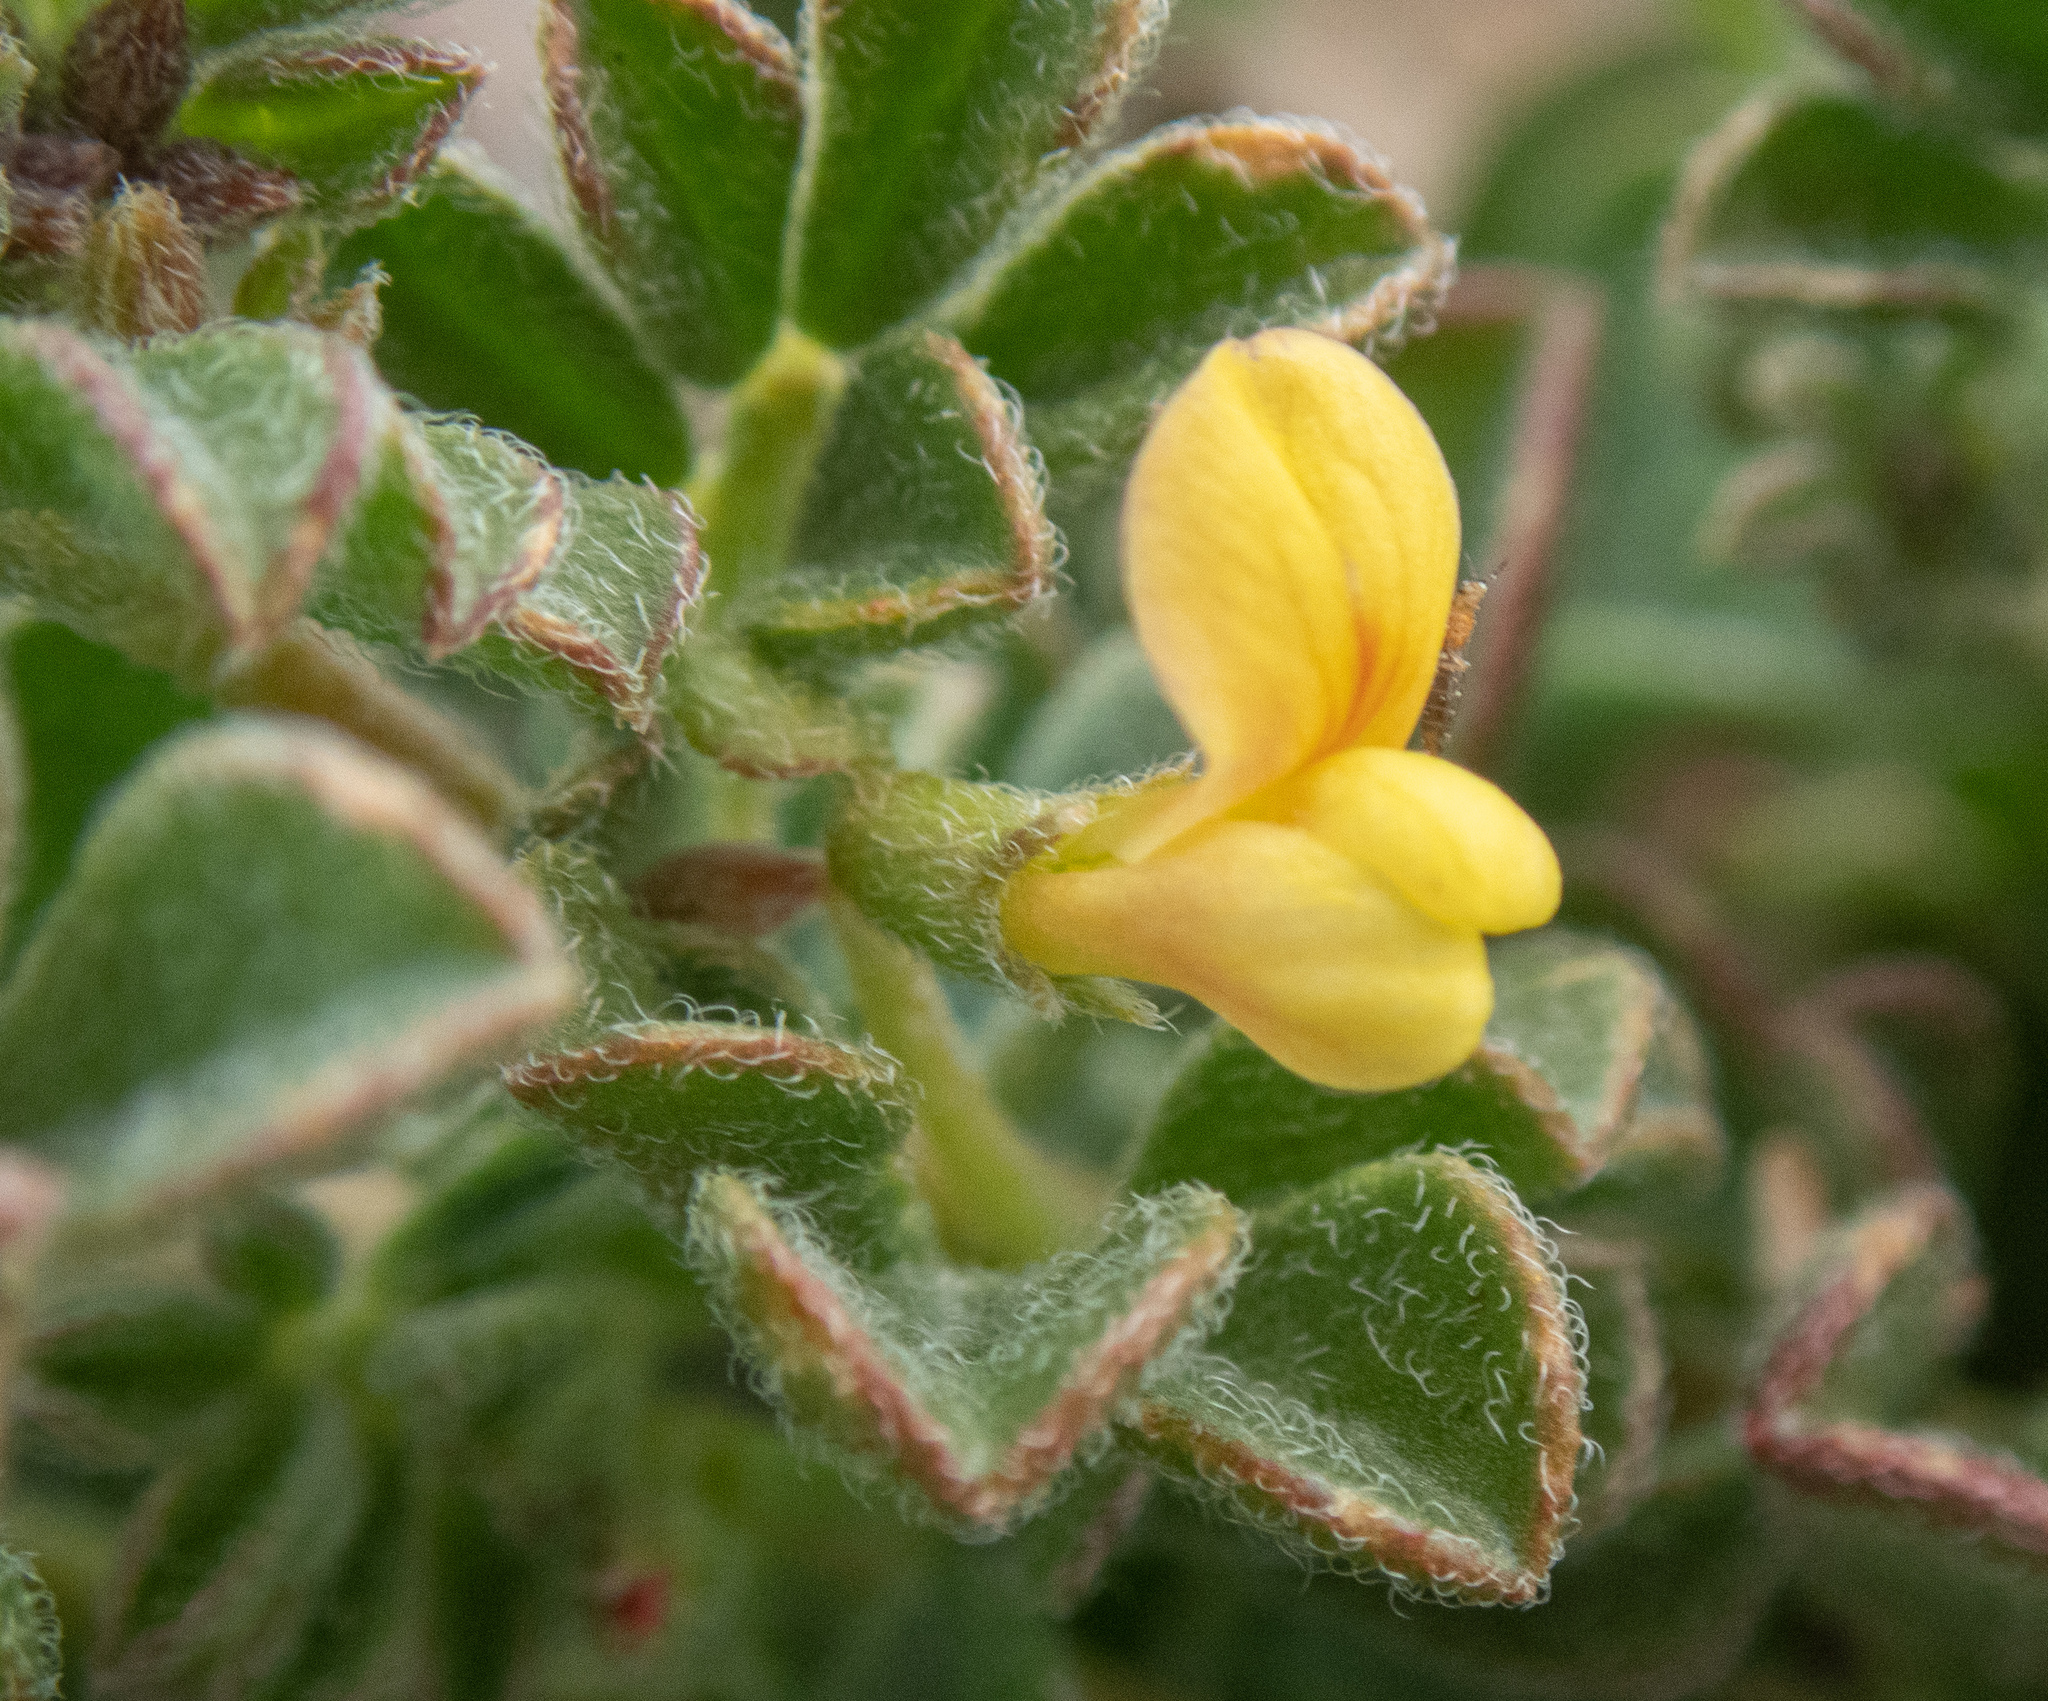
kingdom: Plantae
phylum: Tracheophyta
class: Magnoliopsida
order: Fabales
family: Fabaceae
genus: Acmispon
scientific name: Acmispon strigosus
